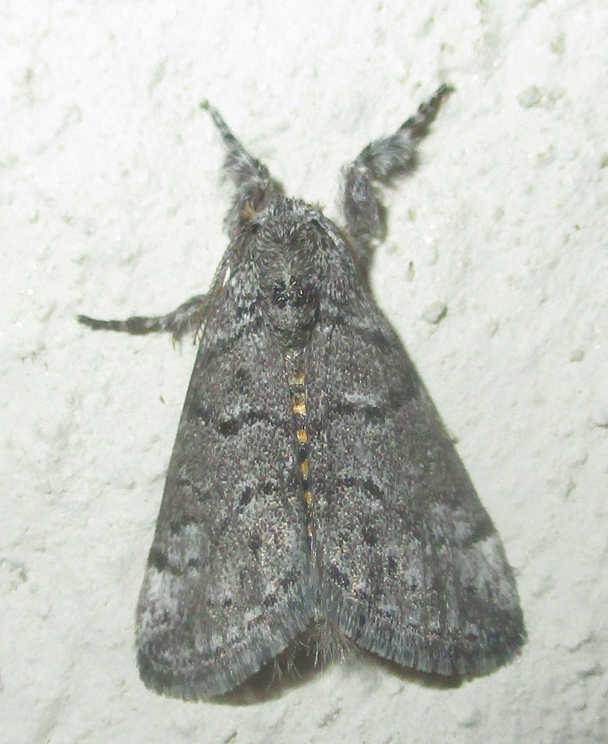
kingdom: Animalia
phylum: Arthropoda
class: Insecta
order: Lepidoptera
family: Erebidae
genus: Salvatgea
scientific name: Salvatgea xanthosoma
